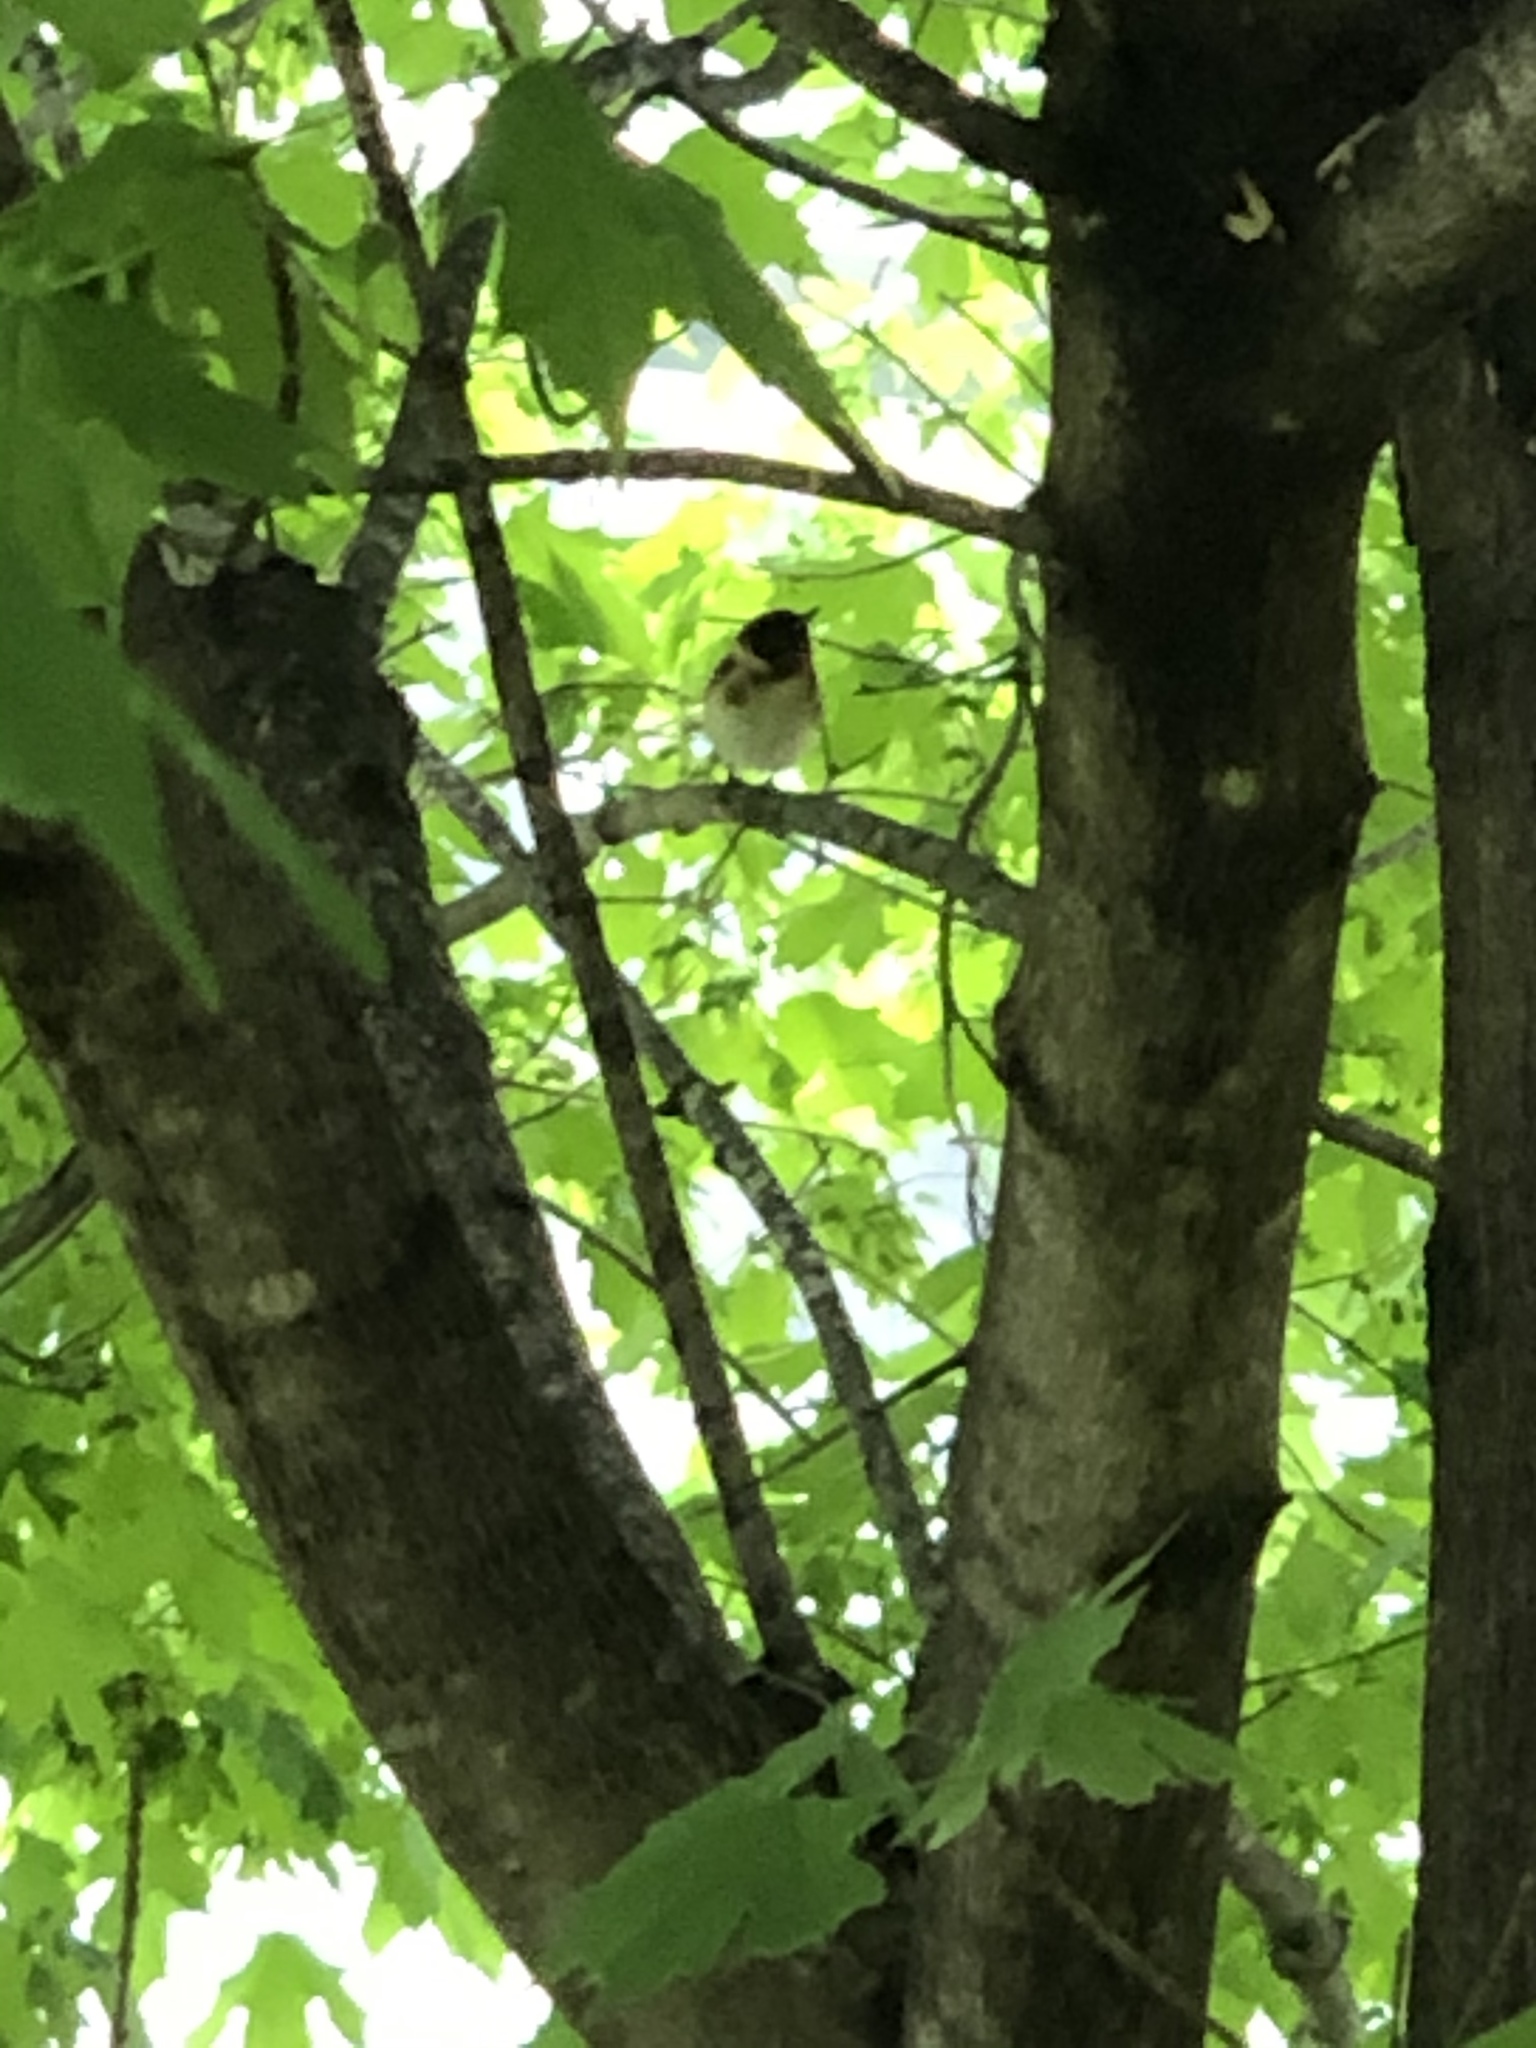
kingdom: Animalia
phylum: Chordata
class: Aves
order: Passeriformes
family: Parulidae
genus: Setophaga
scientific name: Setophaga castanea
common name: Bay-breasted warbler
